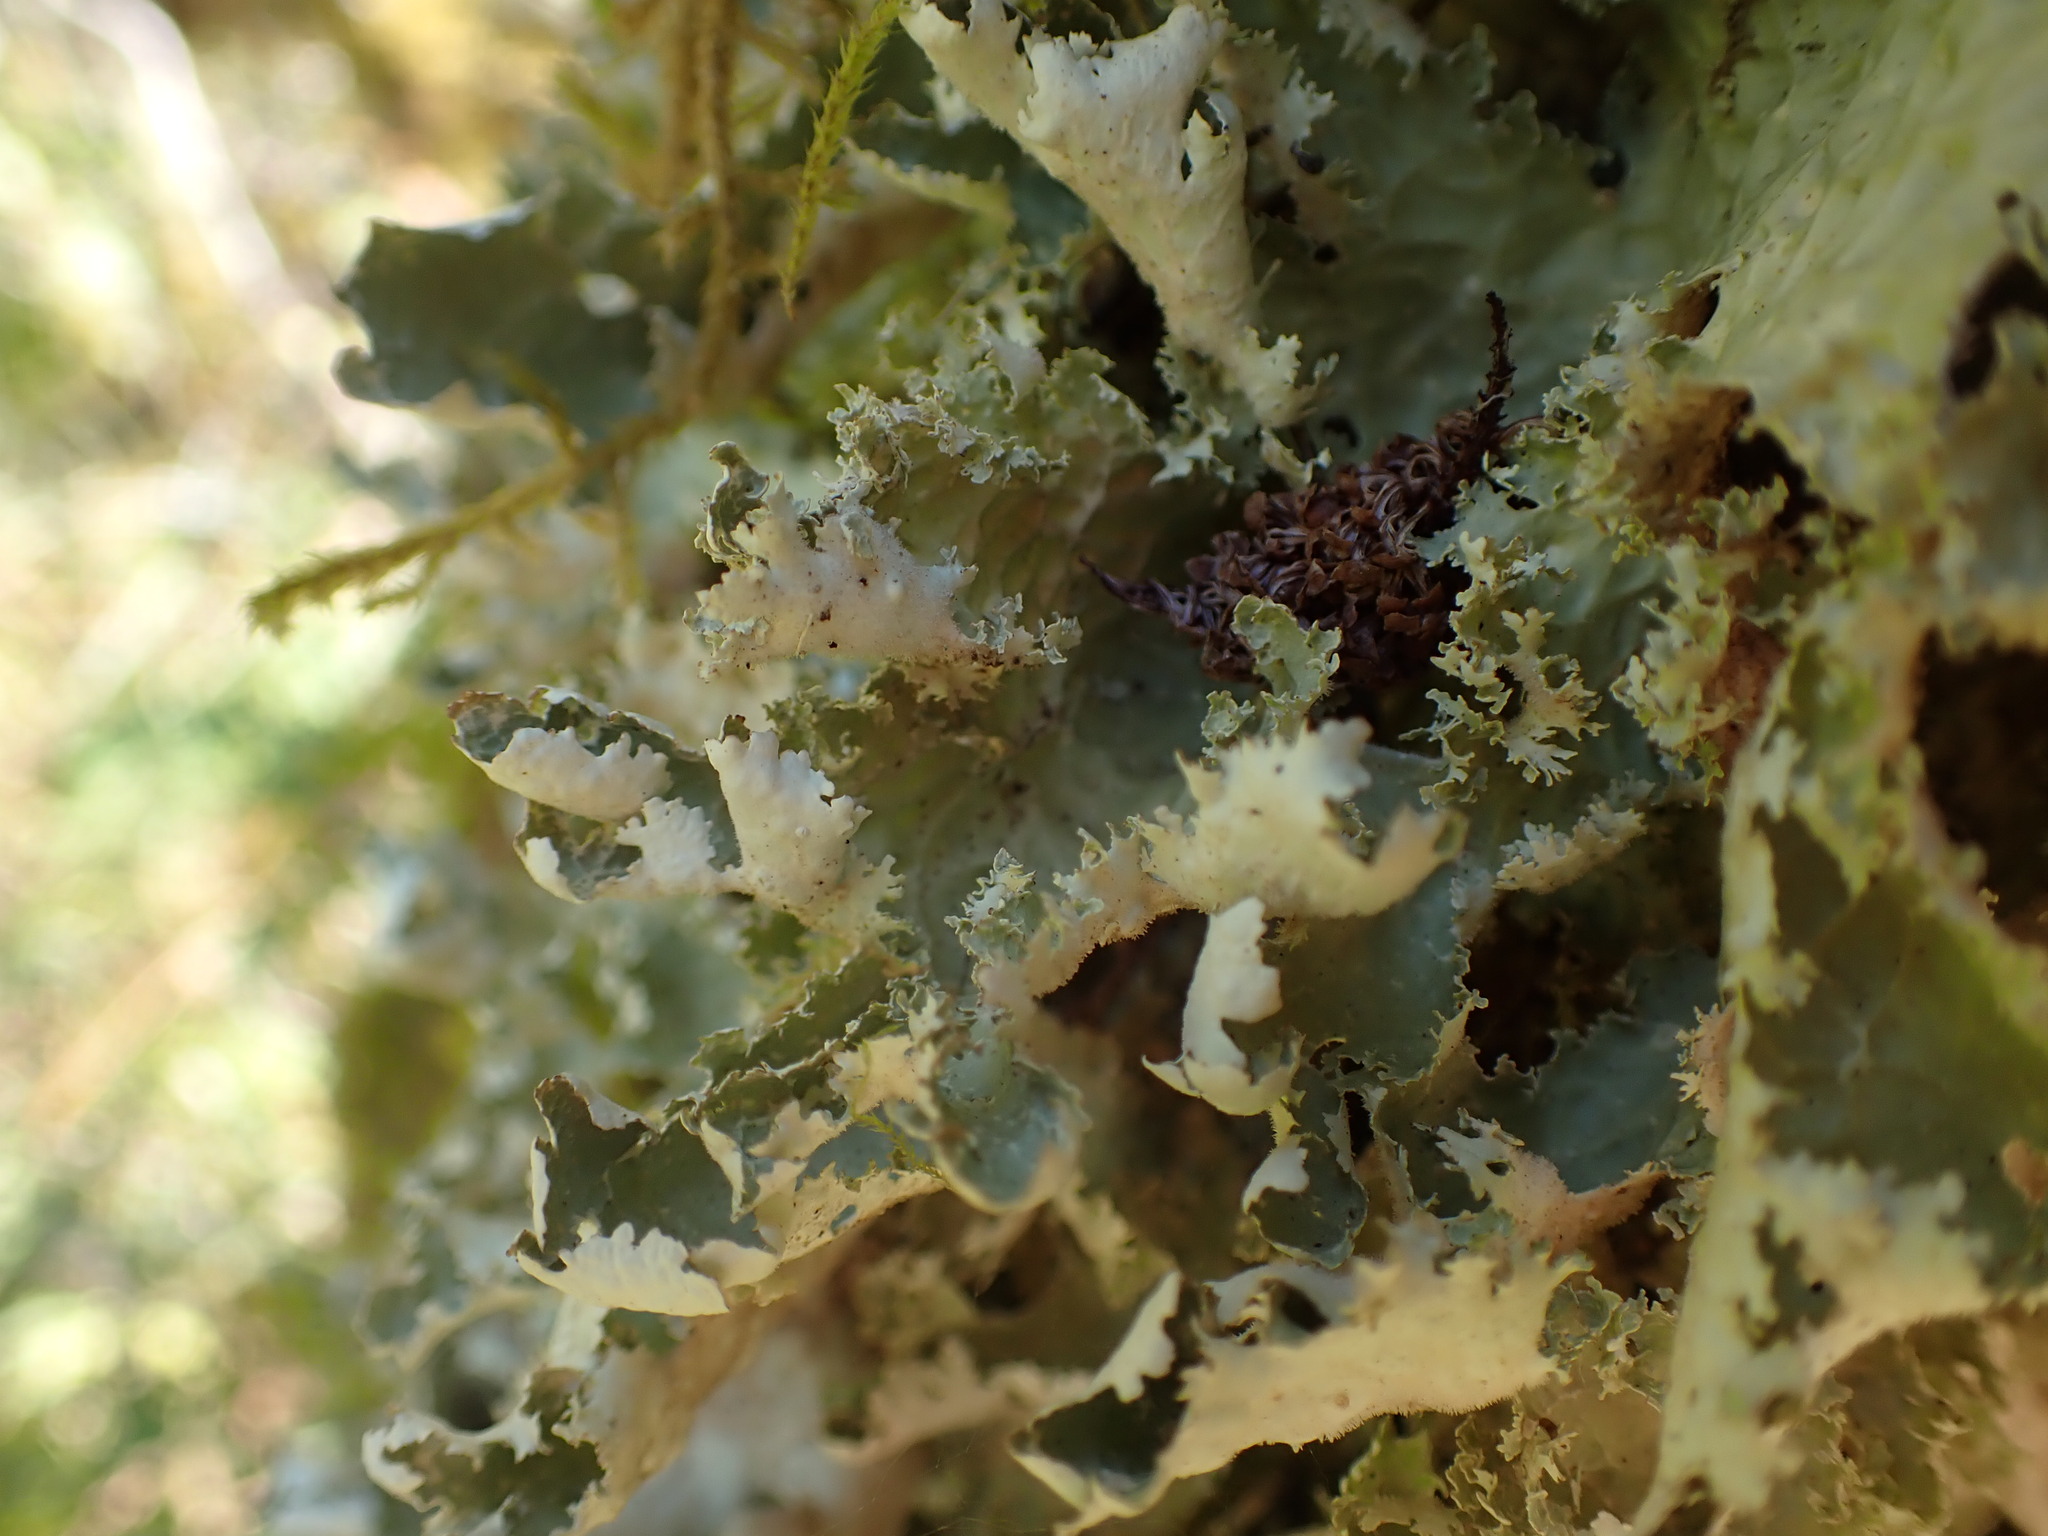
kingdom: Fungi
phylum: Ascomycota
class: Lecanoromycetes
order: Peltigerales
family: Lobariaceae
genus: Lobaria
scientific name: Lobaria oregana
